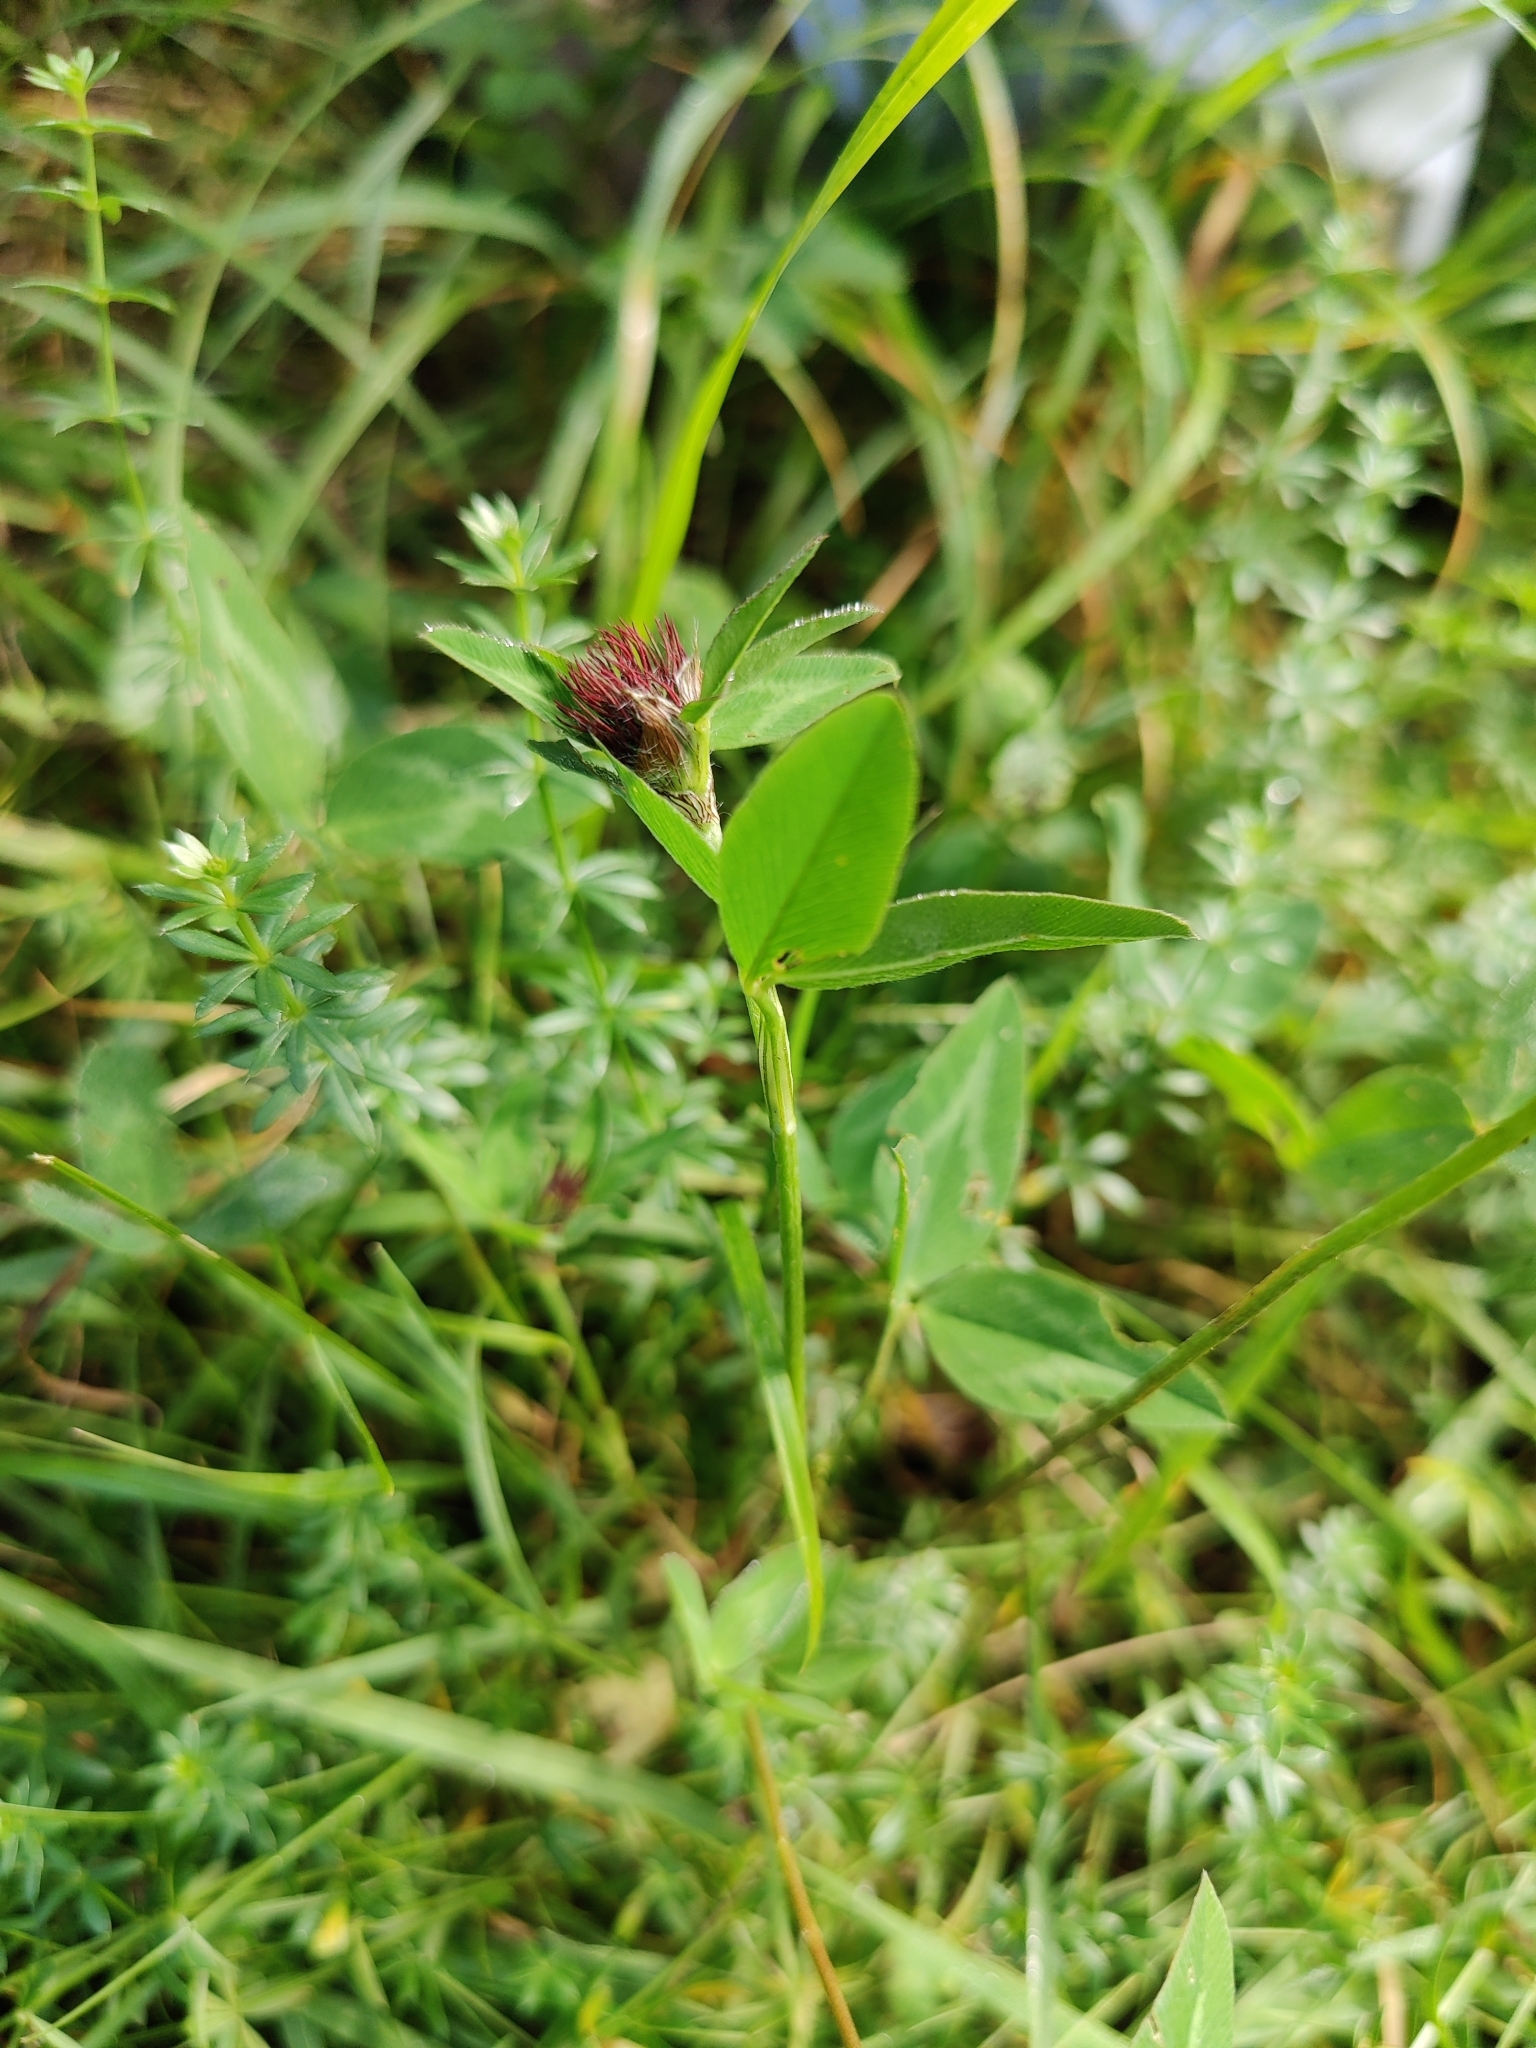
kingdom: Plantae
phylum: Tracheophyta
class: Magnoliopsida
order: Fabales
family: Fabaceae
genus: Trifolium
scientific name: Trifolium pratense
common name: Red clover
